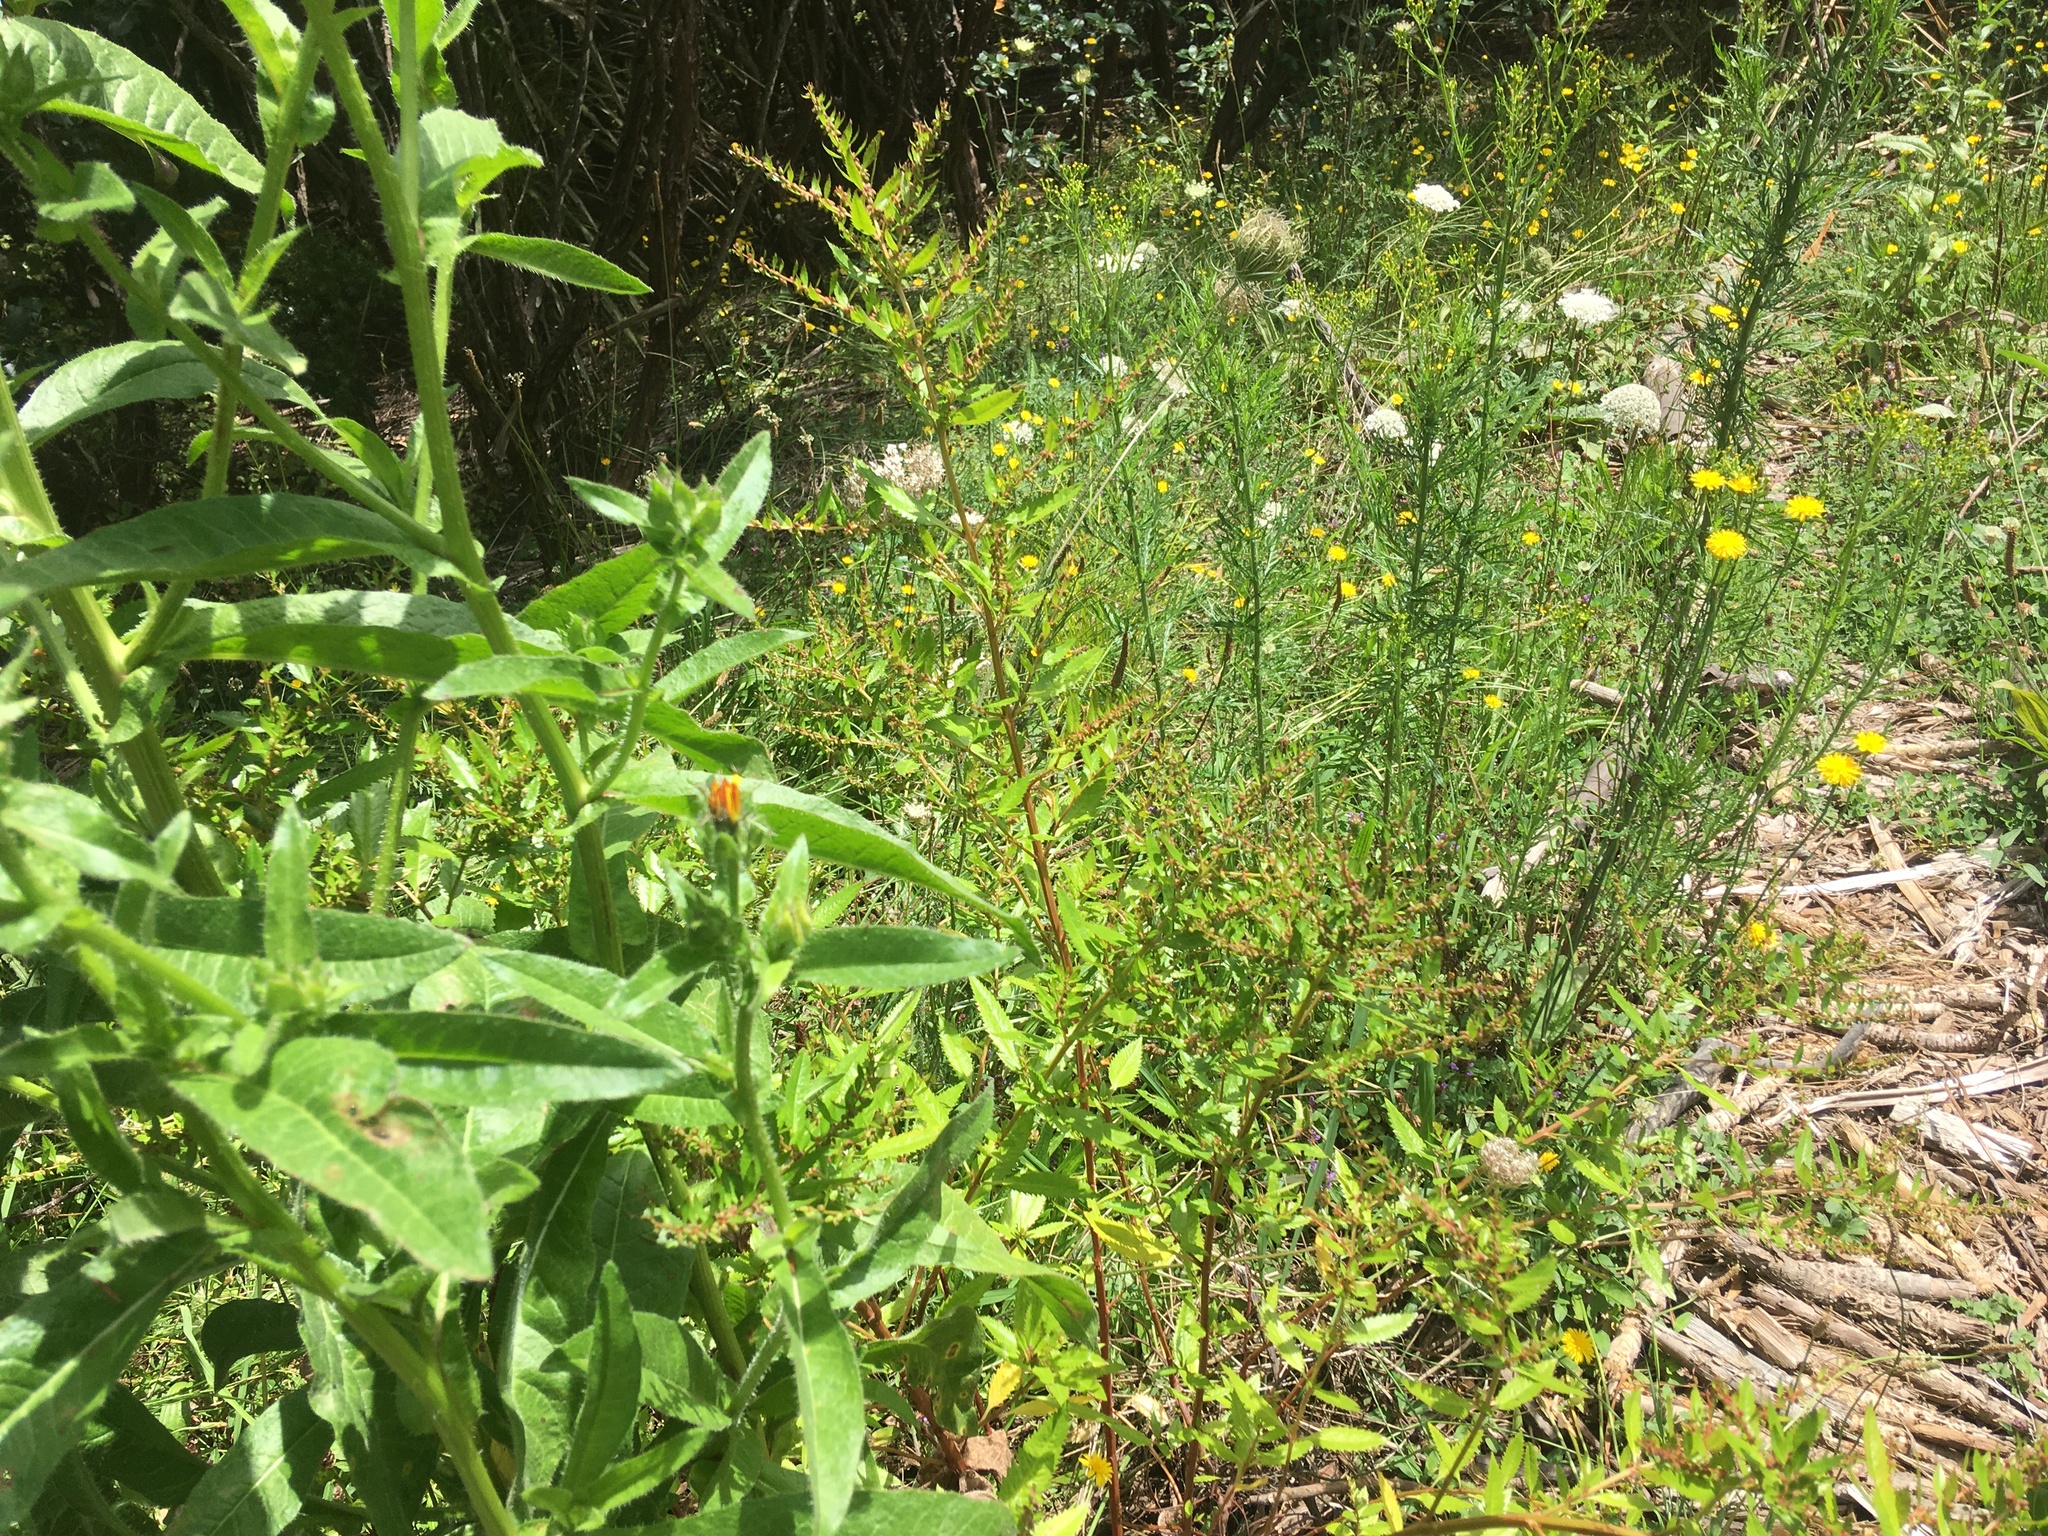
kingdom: Plantae
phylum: Tracheophyta
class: Magnoliopsida
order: Saxifragales
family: Haloragaceae
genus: Haloragis
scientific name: Haloragis erecta
